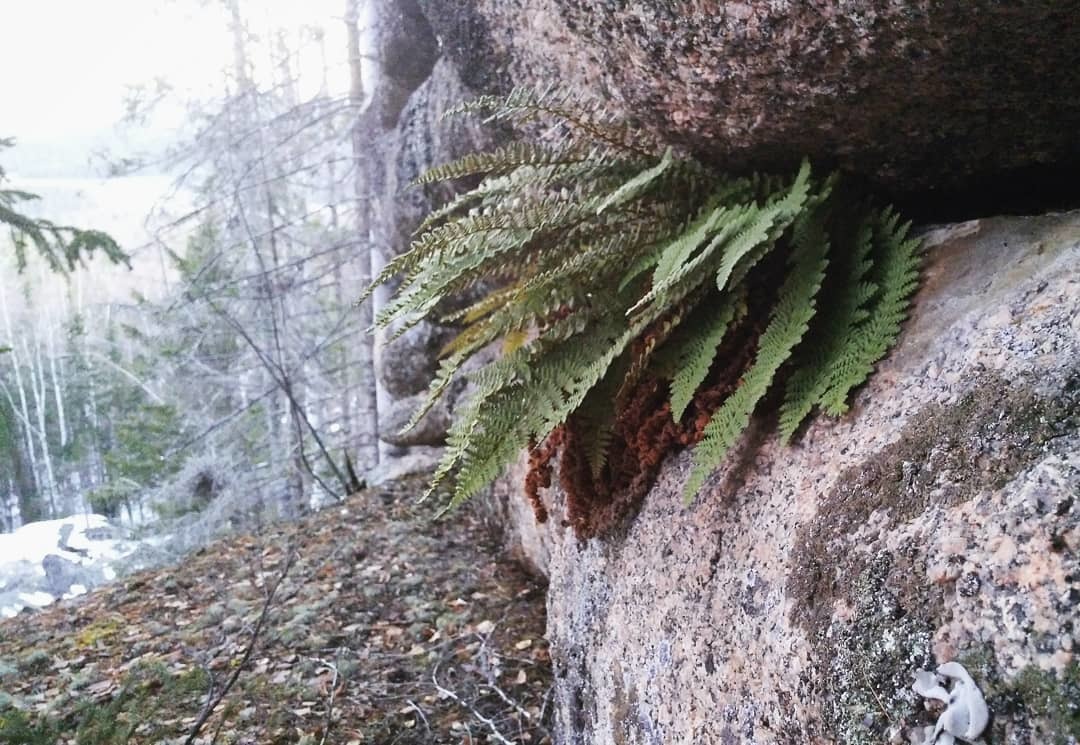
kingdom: Plantae
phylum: Tracheophyta
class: Polypodiopsida
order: Polypodiales
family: Dryopteridaceae
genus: Dryopteris
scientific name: Dryopteris fragrans
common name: Fragrant wood fern
